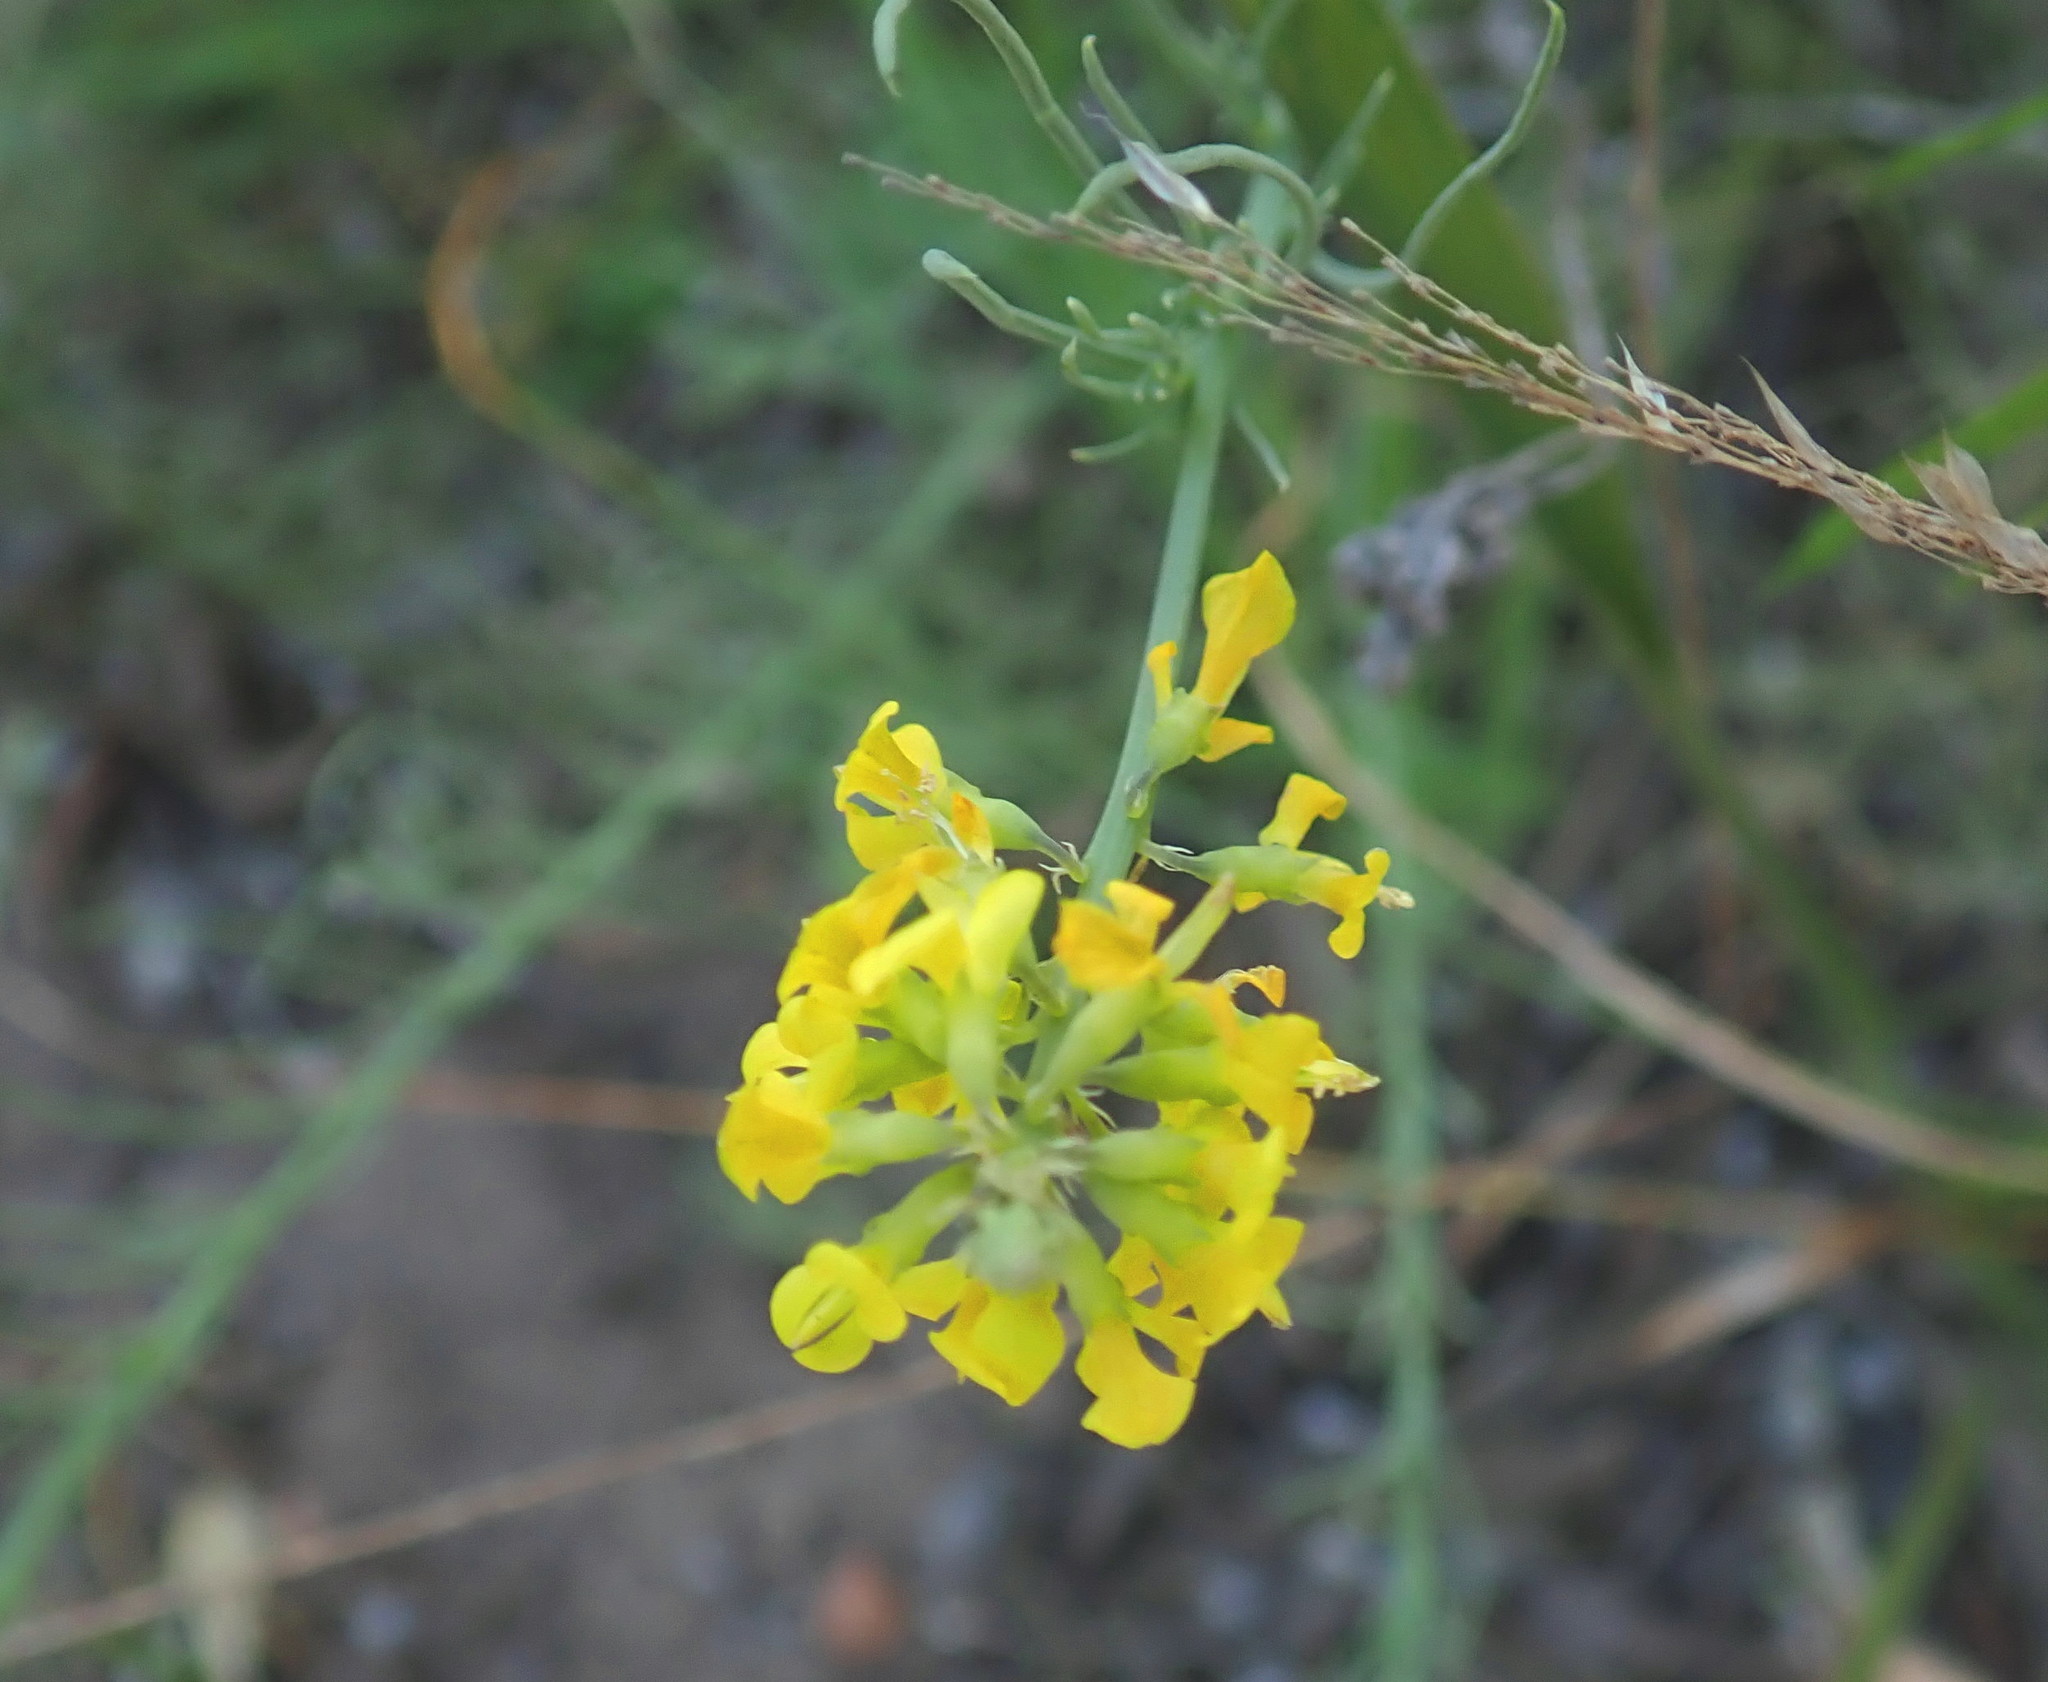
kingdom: Plantae
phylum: Tracheophyta
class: Magnoliopsida
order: Fabales
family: Fabaceae
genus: Lebeckia
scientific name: Lebeckia gracilis
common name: Slender ganna
